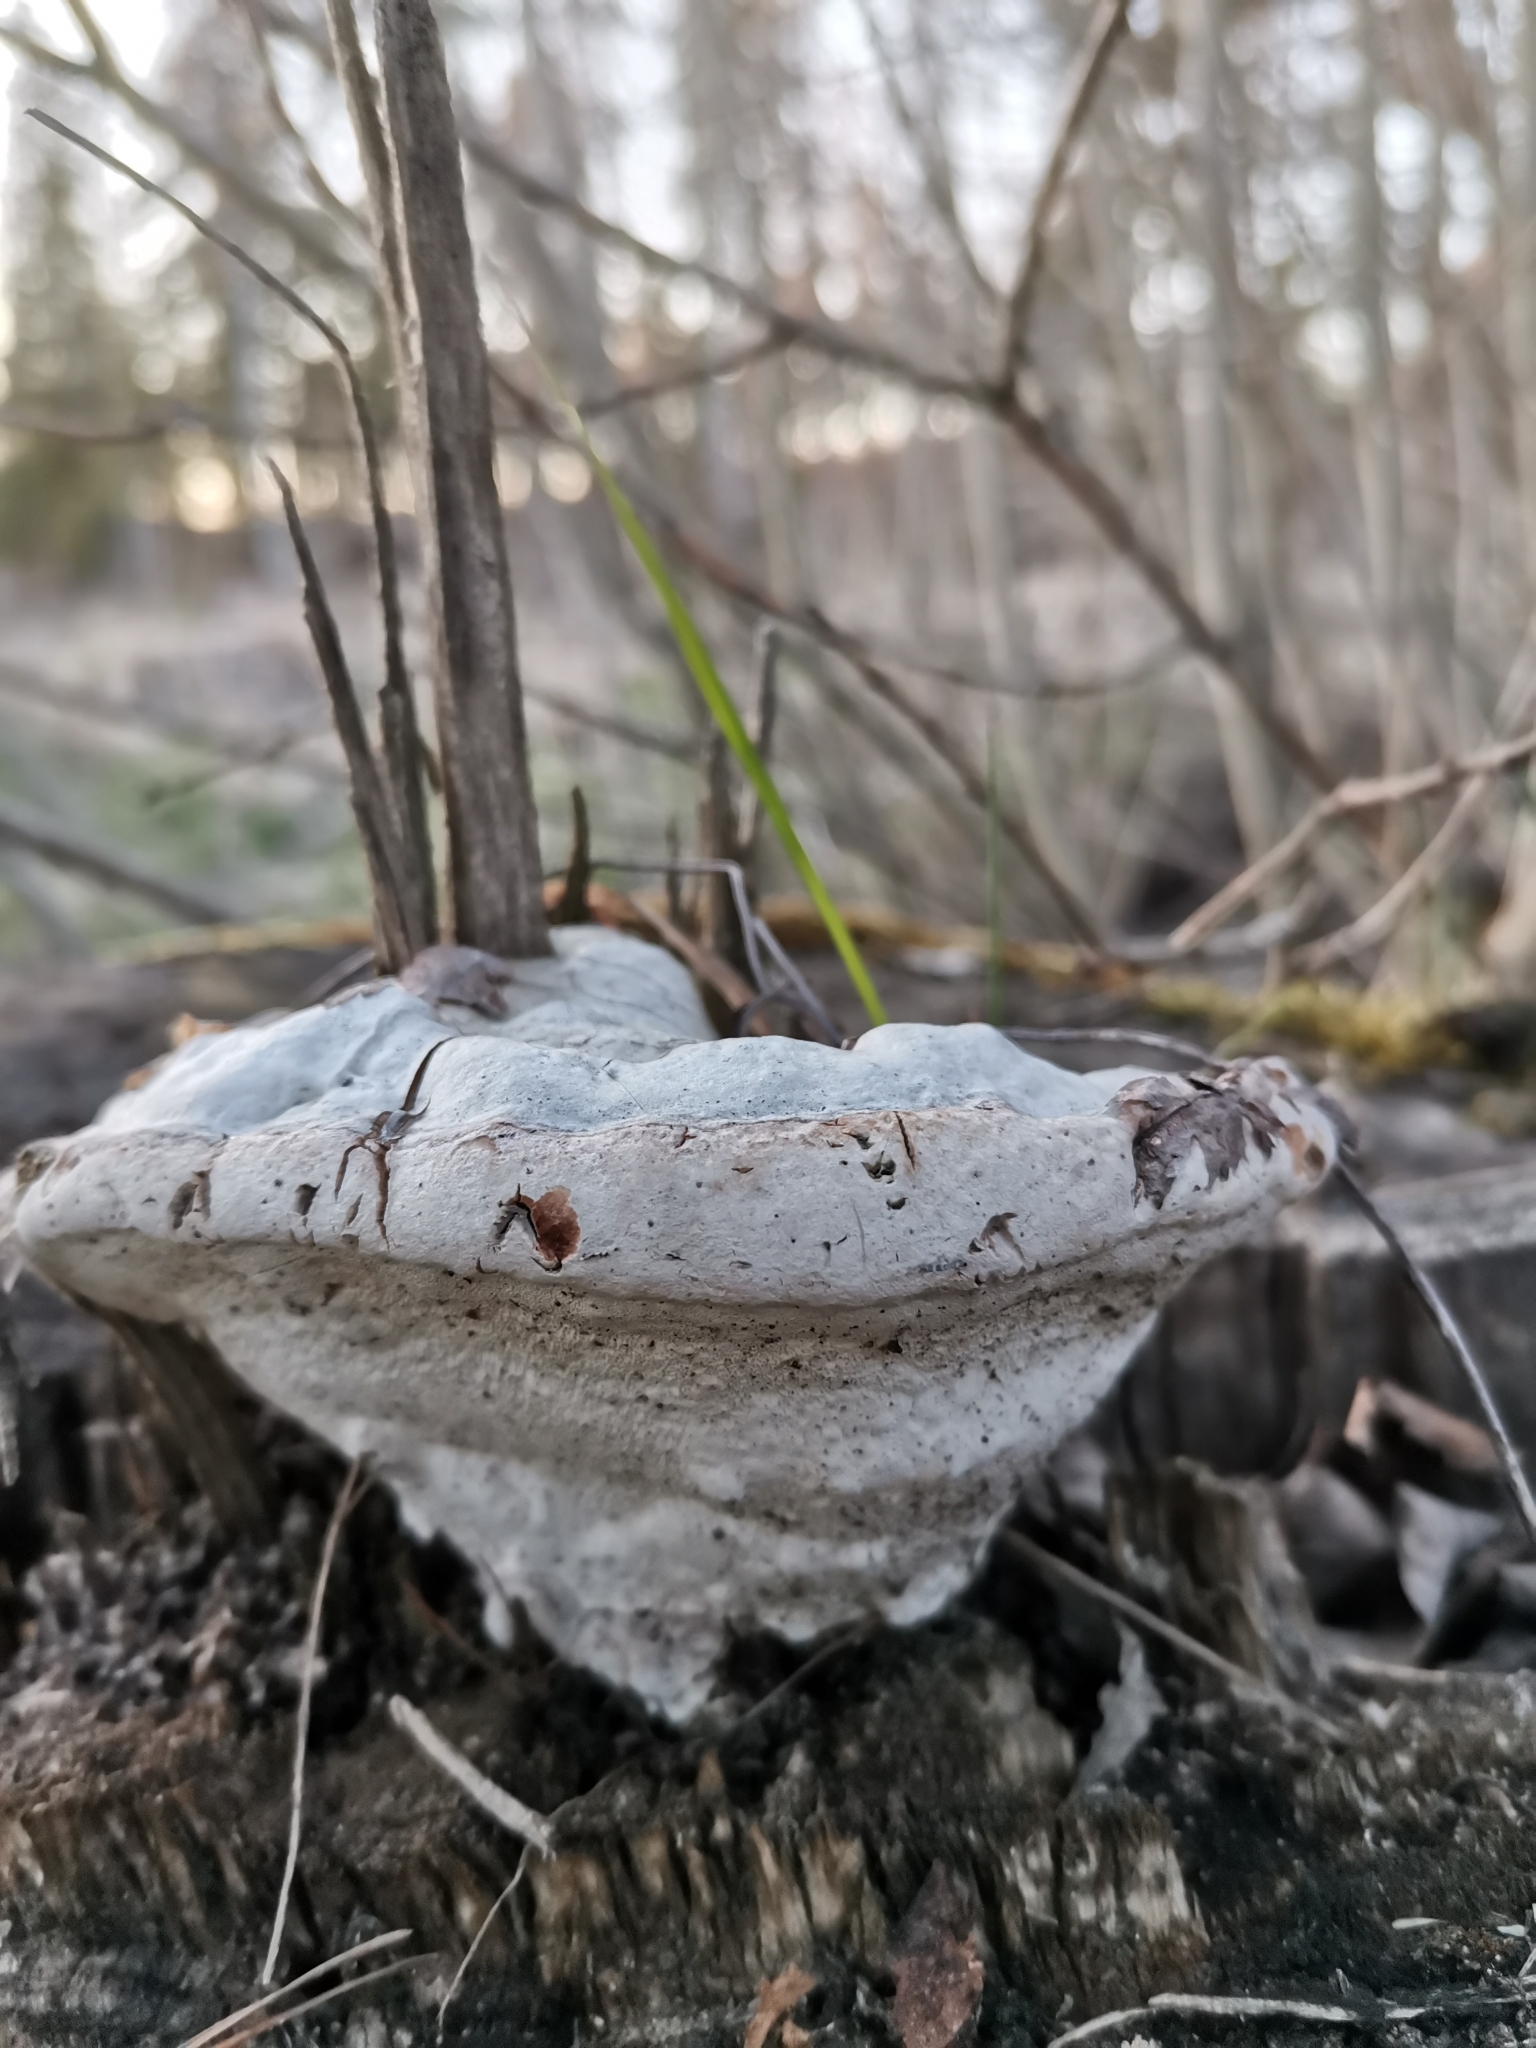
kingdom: Fungi
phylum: Basidiomycota
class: Agaricomycetes
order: Polyporales
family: Polyporaceae
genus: Fomes
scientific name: Fomes fomentarius
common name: Hoof fungus
